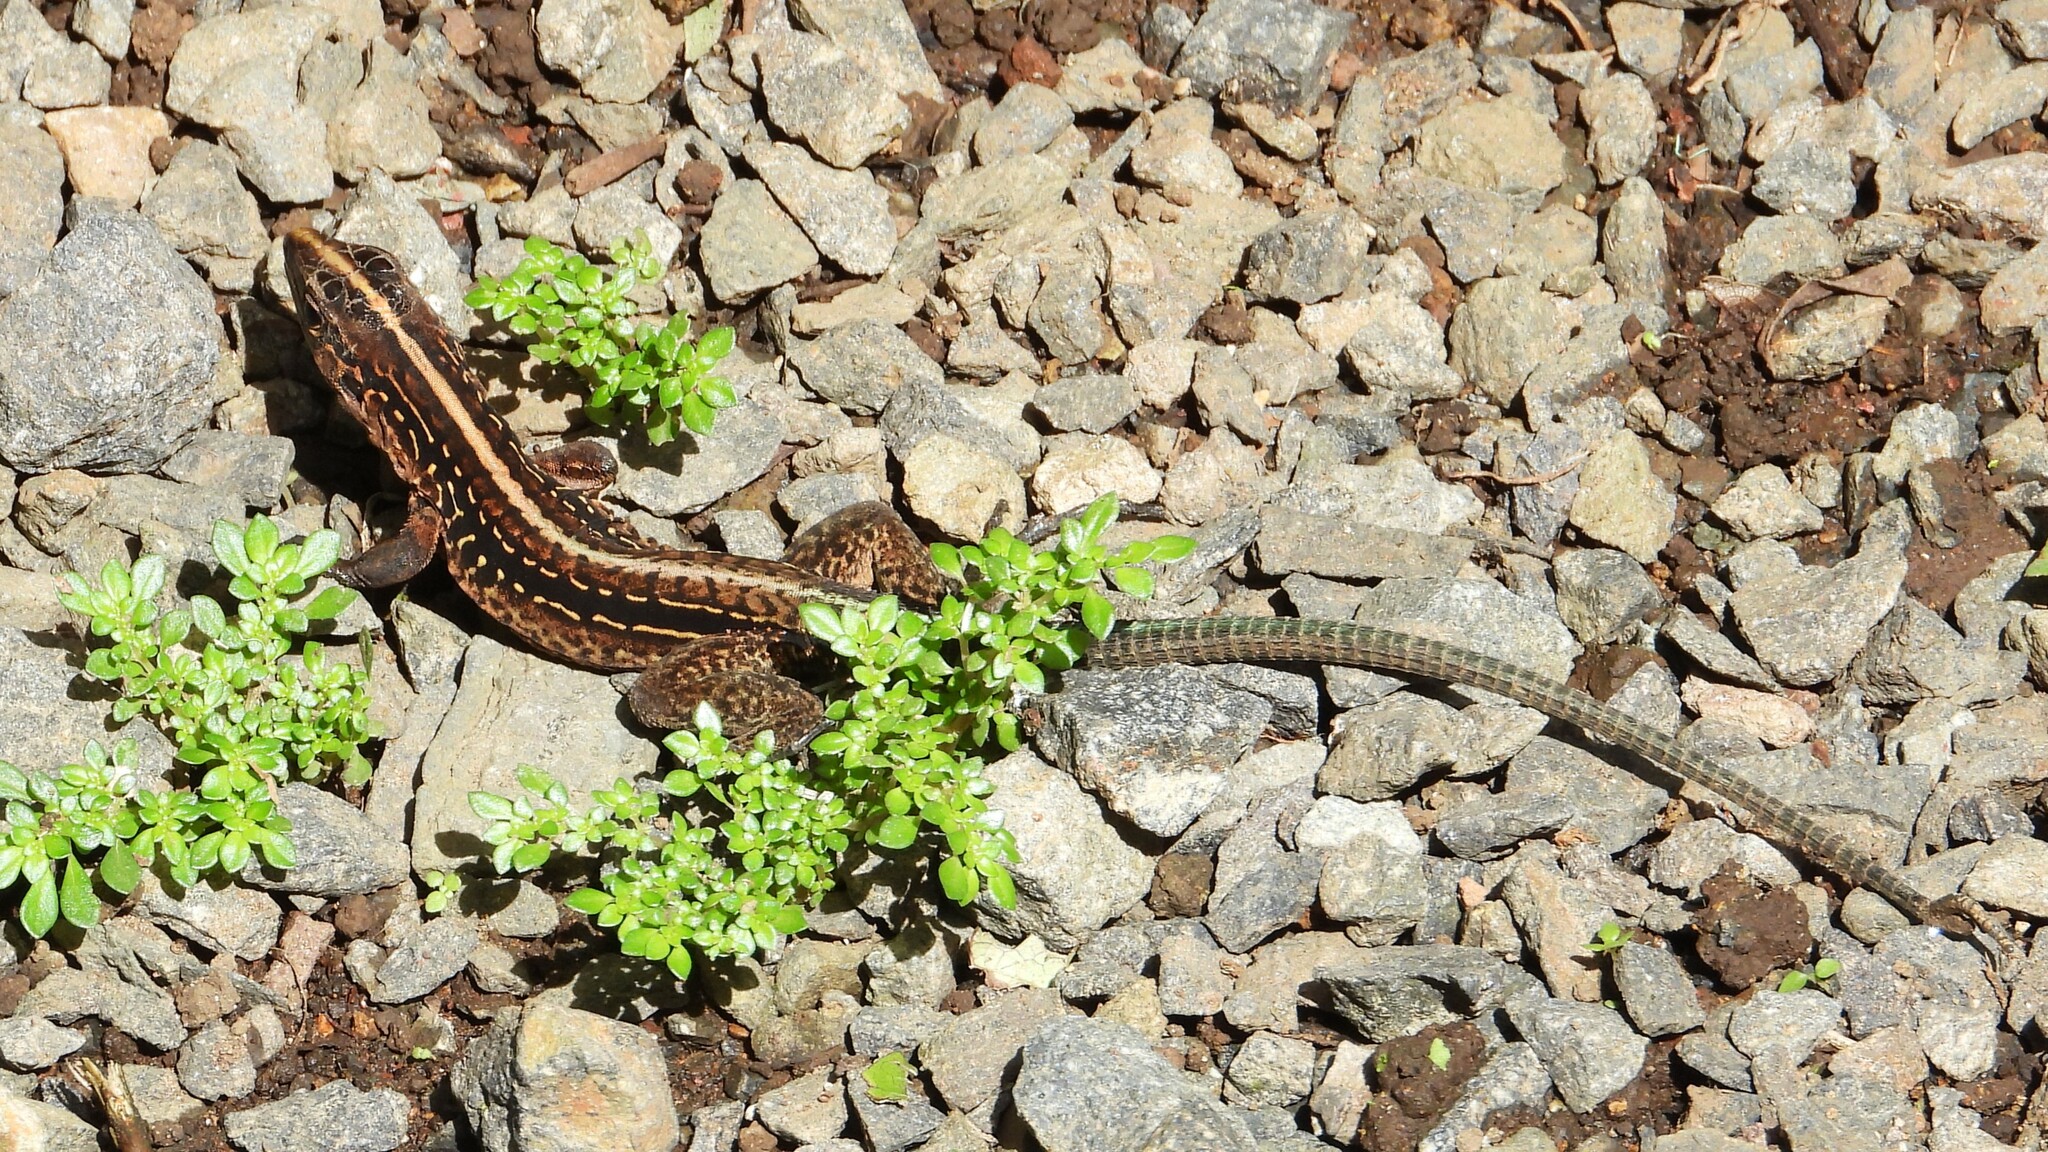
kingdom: Animalia
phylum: Chordata
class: Squamata
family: Teiidae
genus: Holcosus
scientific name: Holcosus festivus
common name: Middle american ameiva
